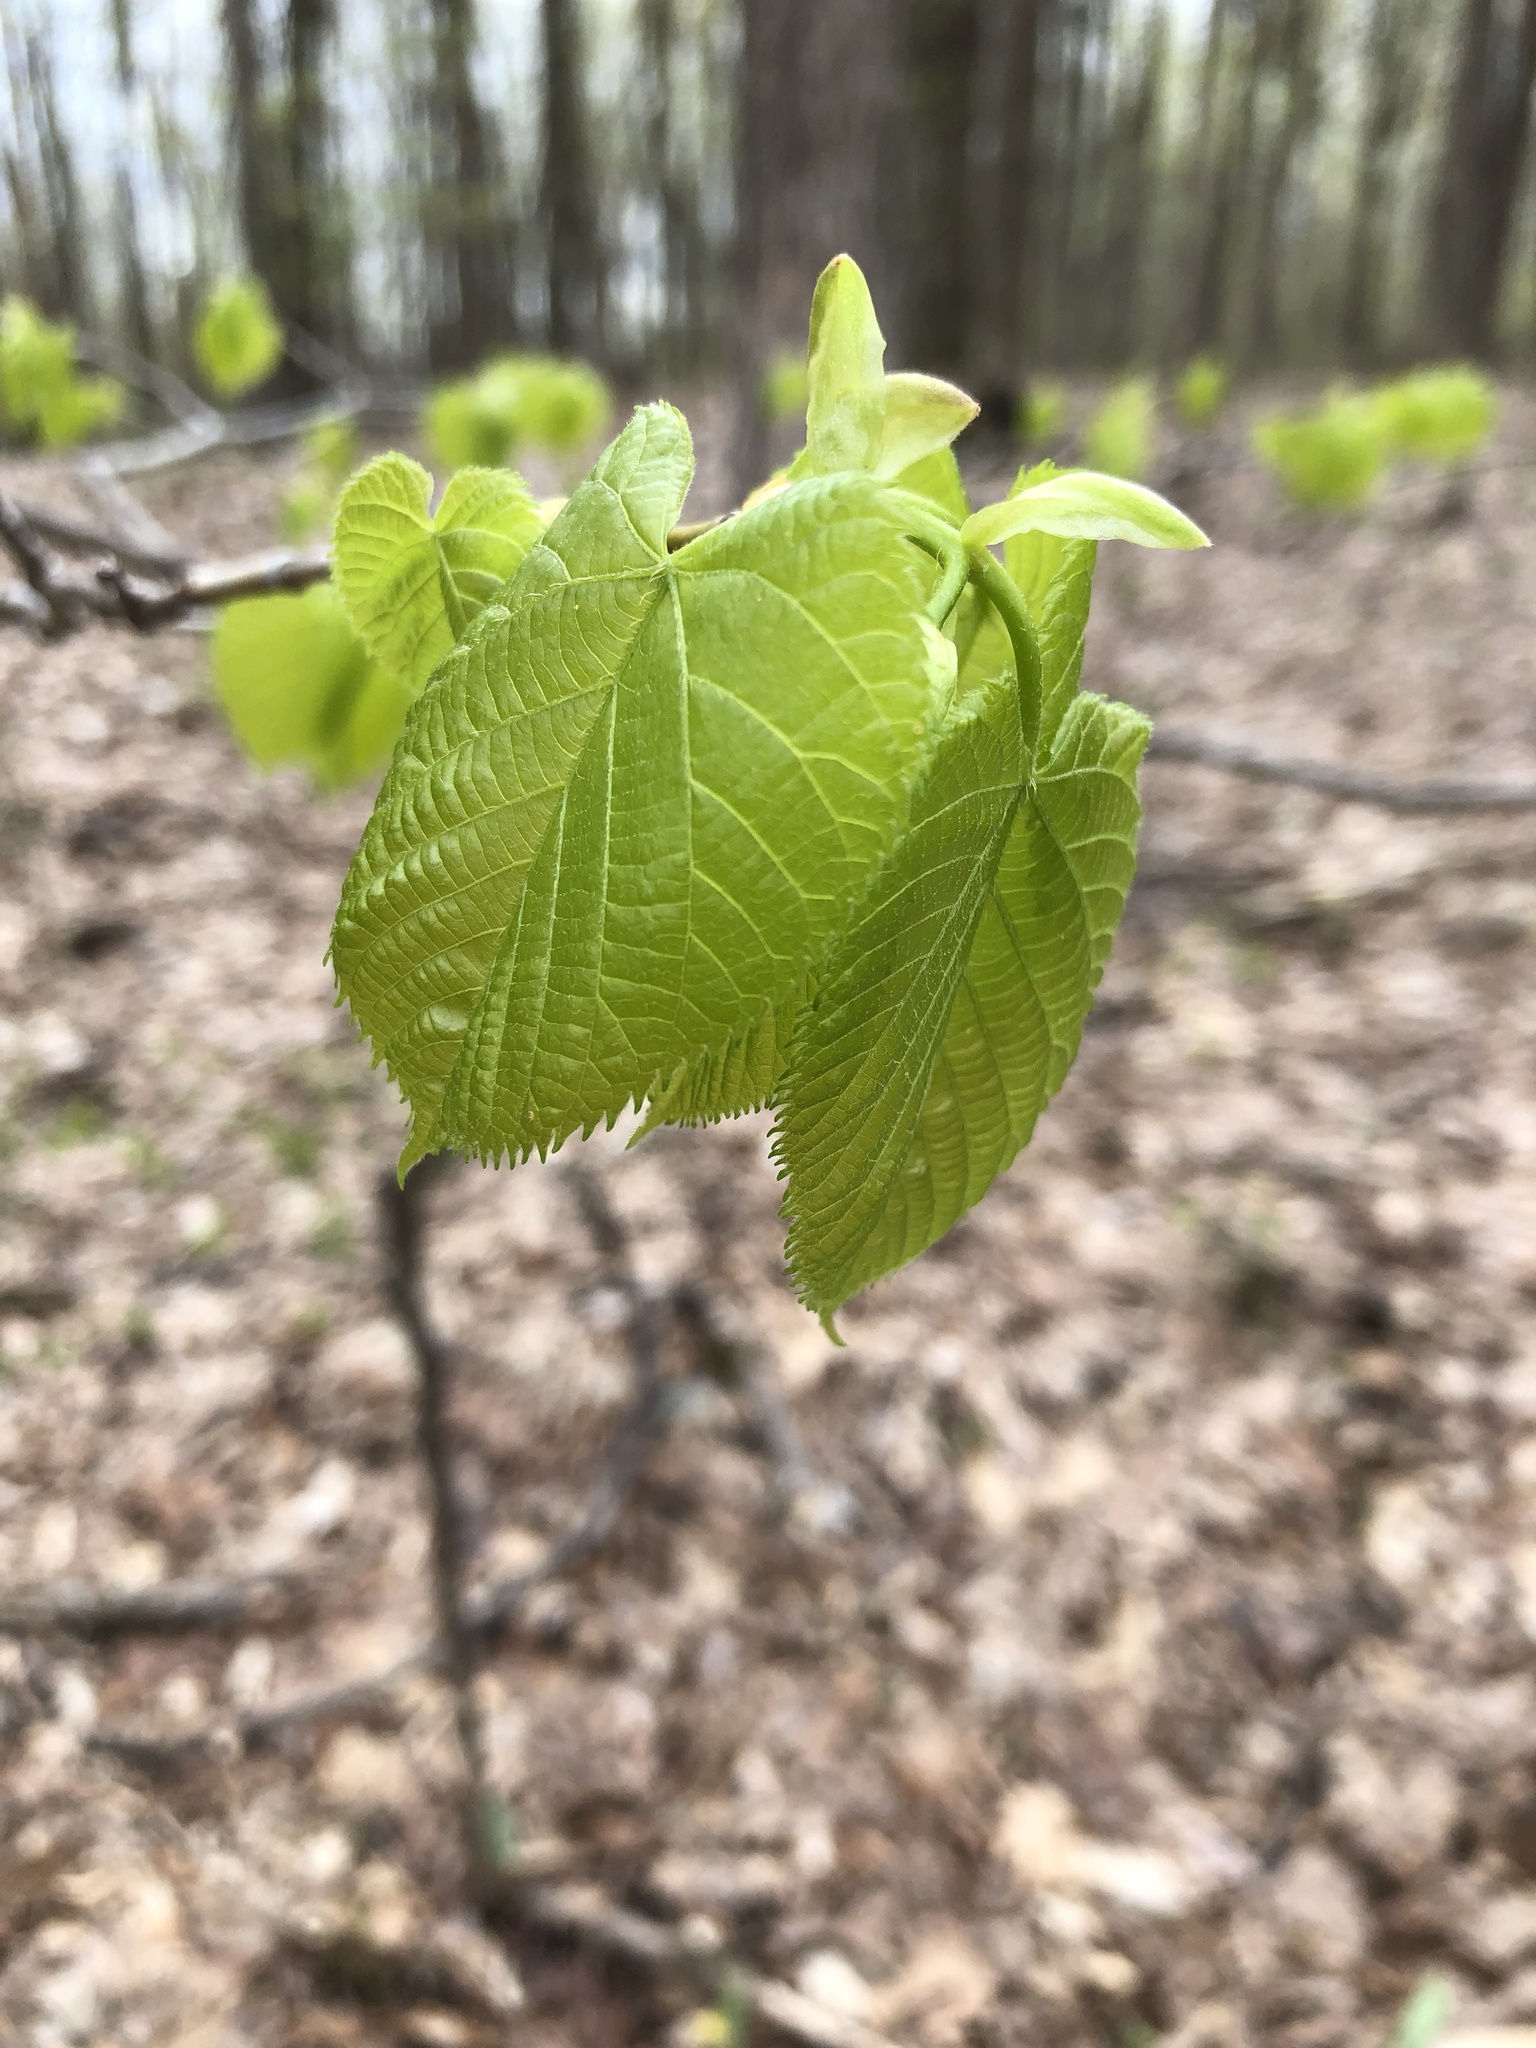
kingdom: Plantae
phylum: Tracheophyta
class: Magnoliopsida
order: Malvales
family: Malvaceae
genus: Tilia
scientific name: Tilia americana
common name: Basswood
